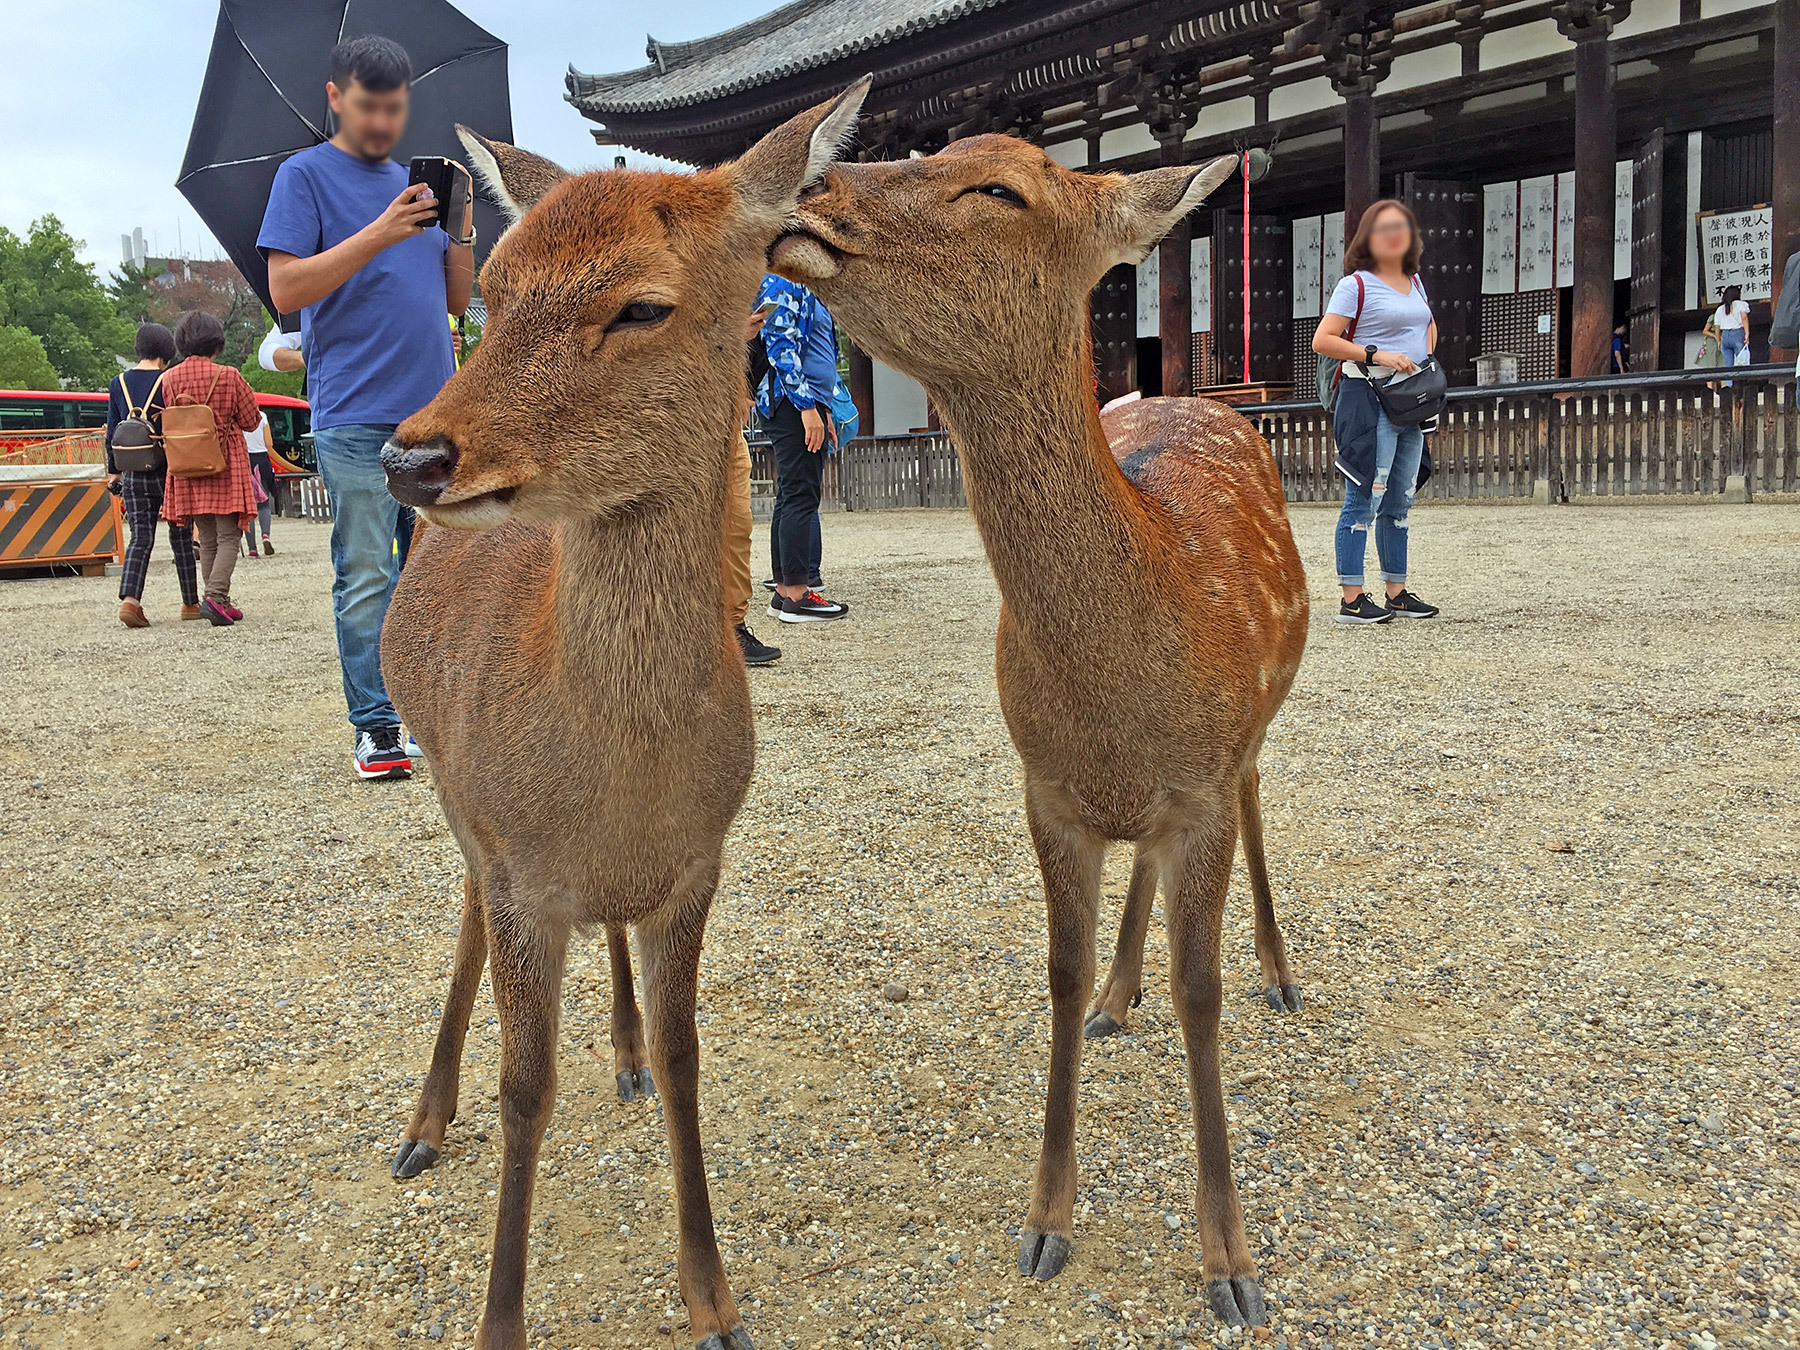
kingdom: Animalia
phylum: Chordata
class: Mammalia
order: Artiodactyla
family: Cervidae
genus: Cervus
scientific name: Cervus nippon
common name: Sika deer
